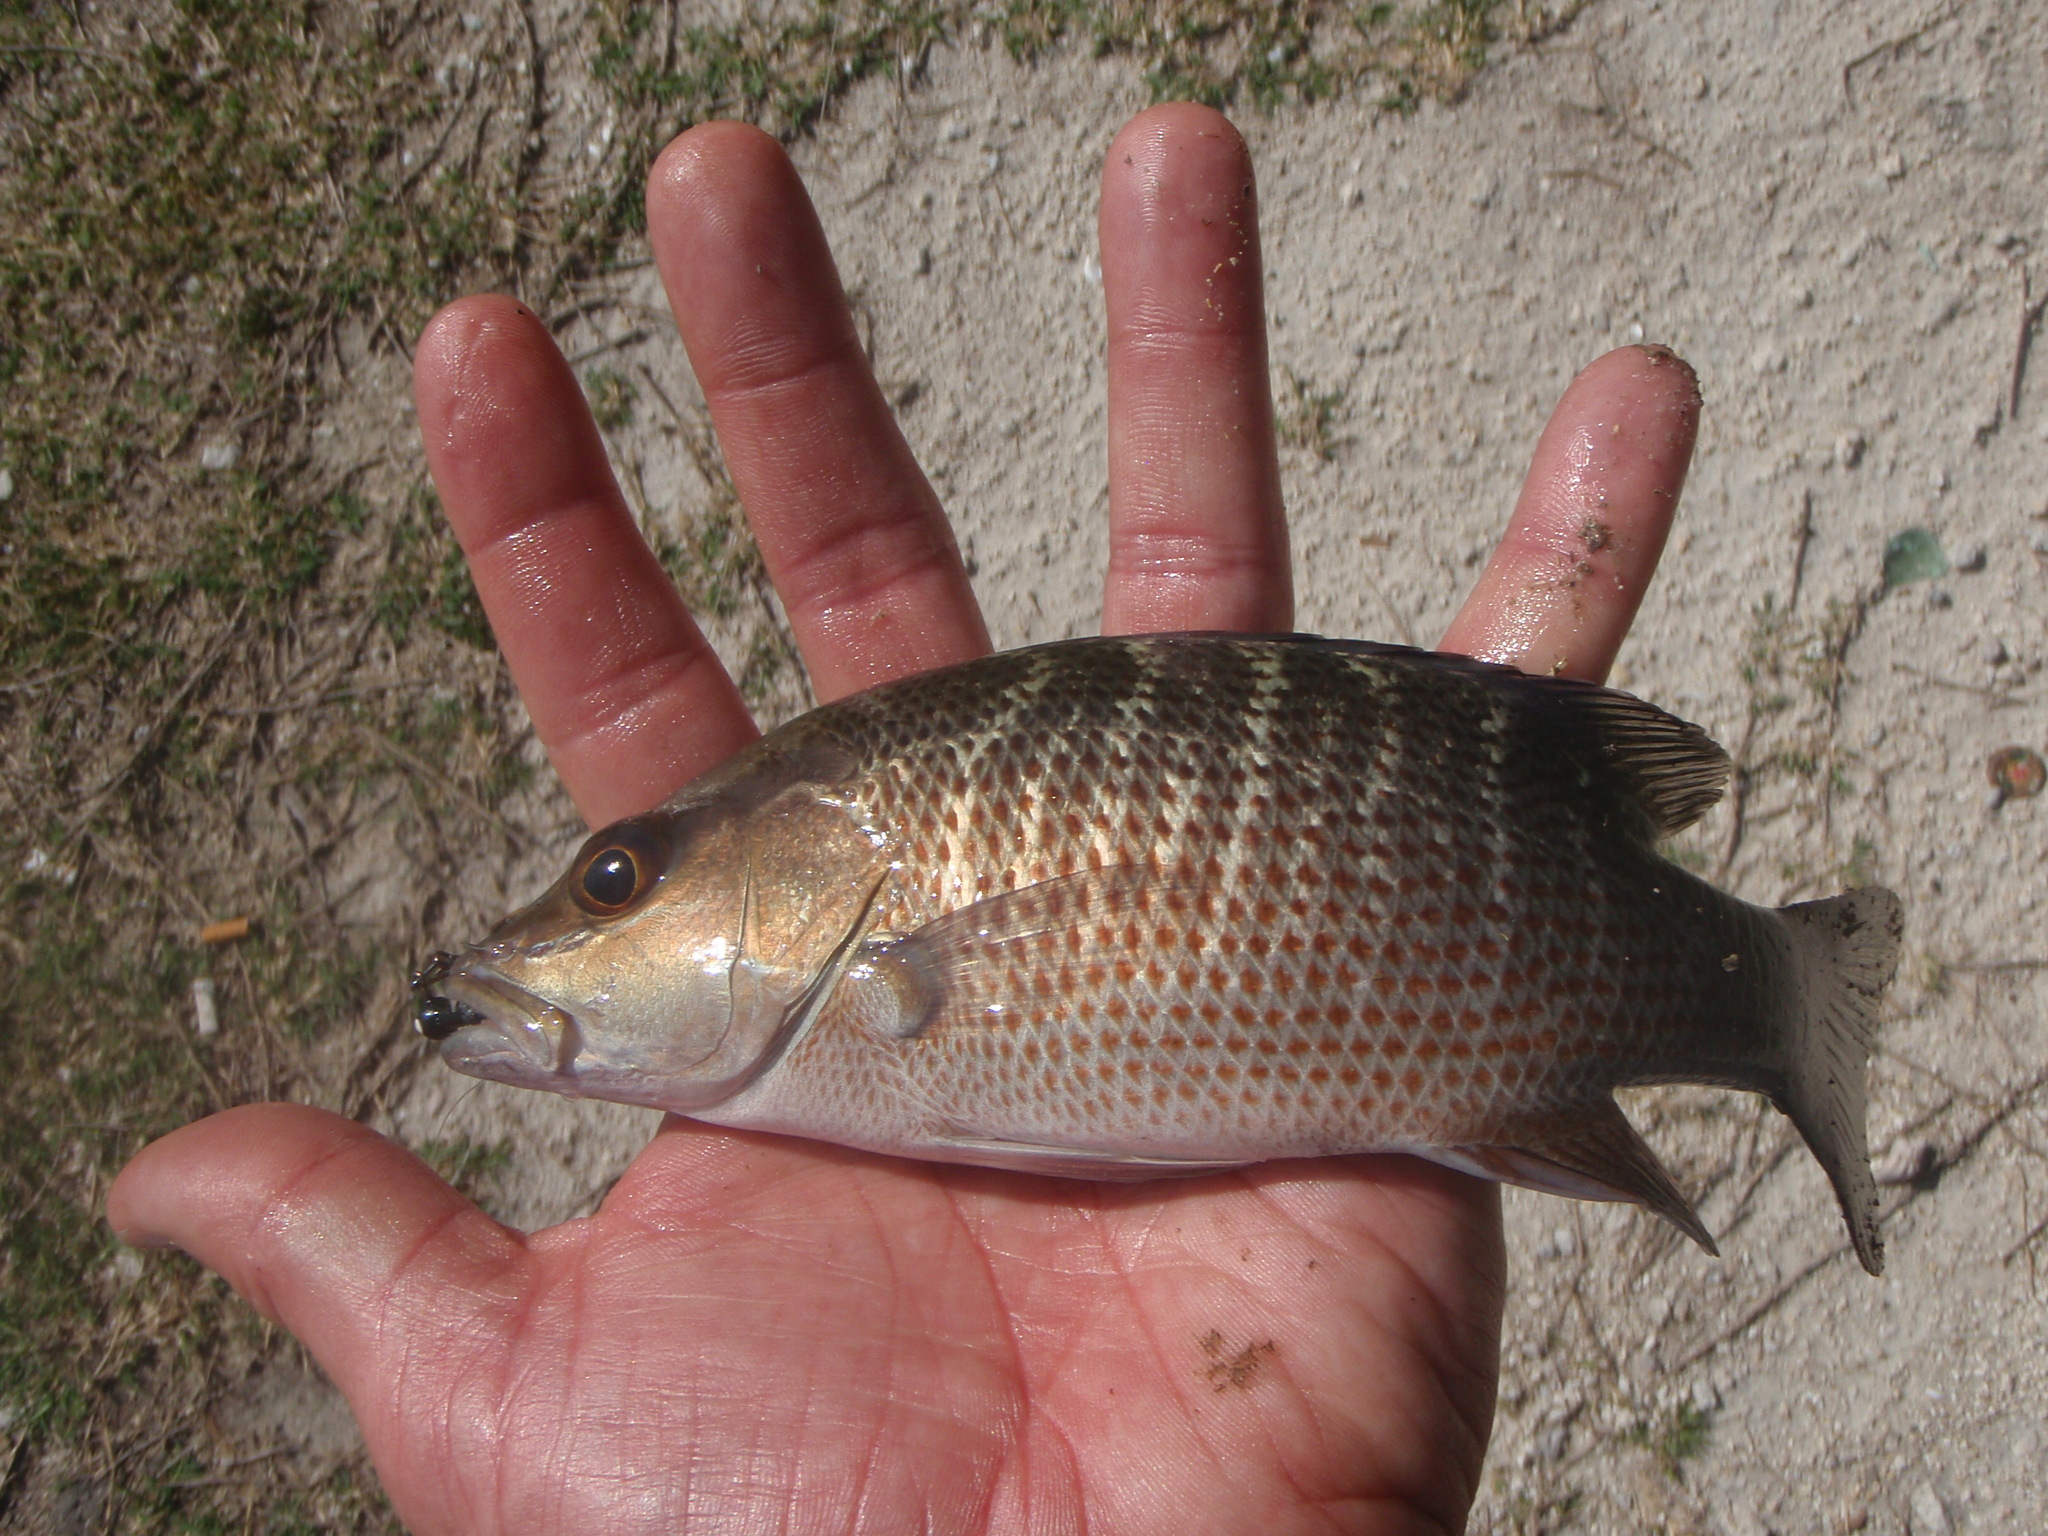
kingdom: Animalia
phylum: Chordata
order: Perciformes
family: Lutjanidae
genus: Lutjanus
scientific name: Lutjanus griseus
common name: Gray snapper
